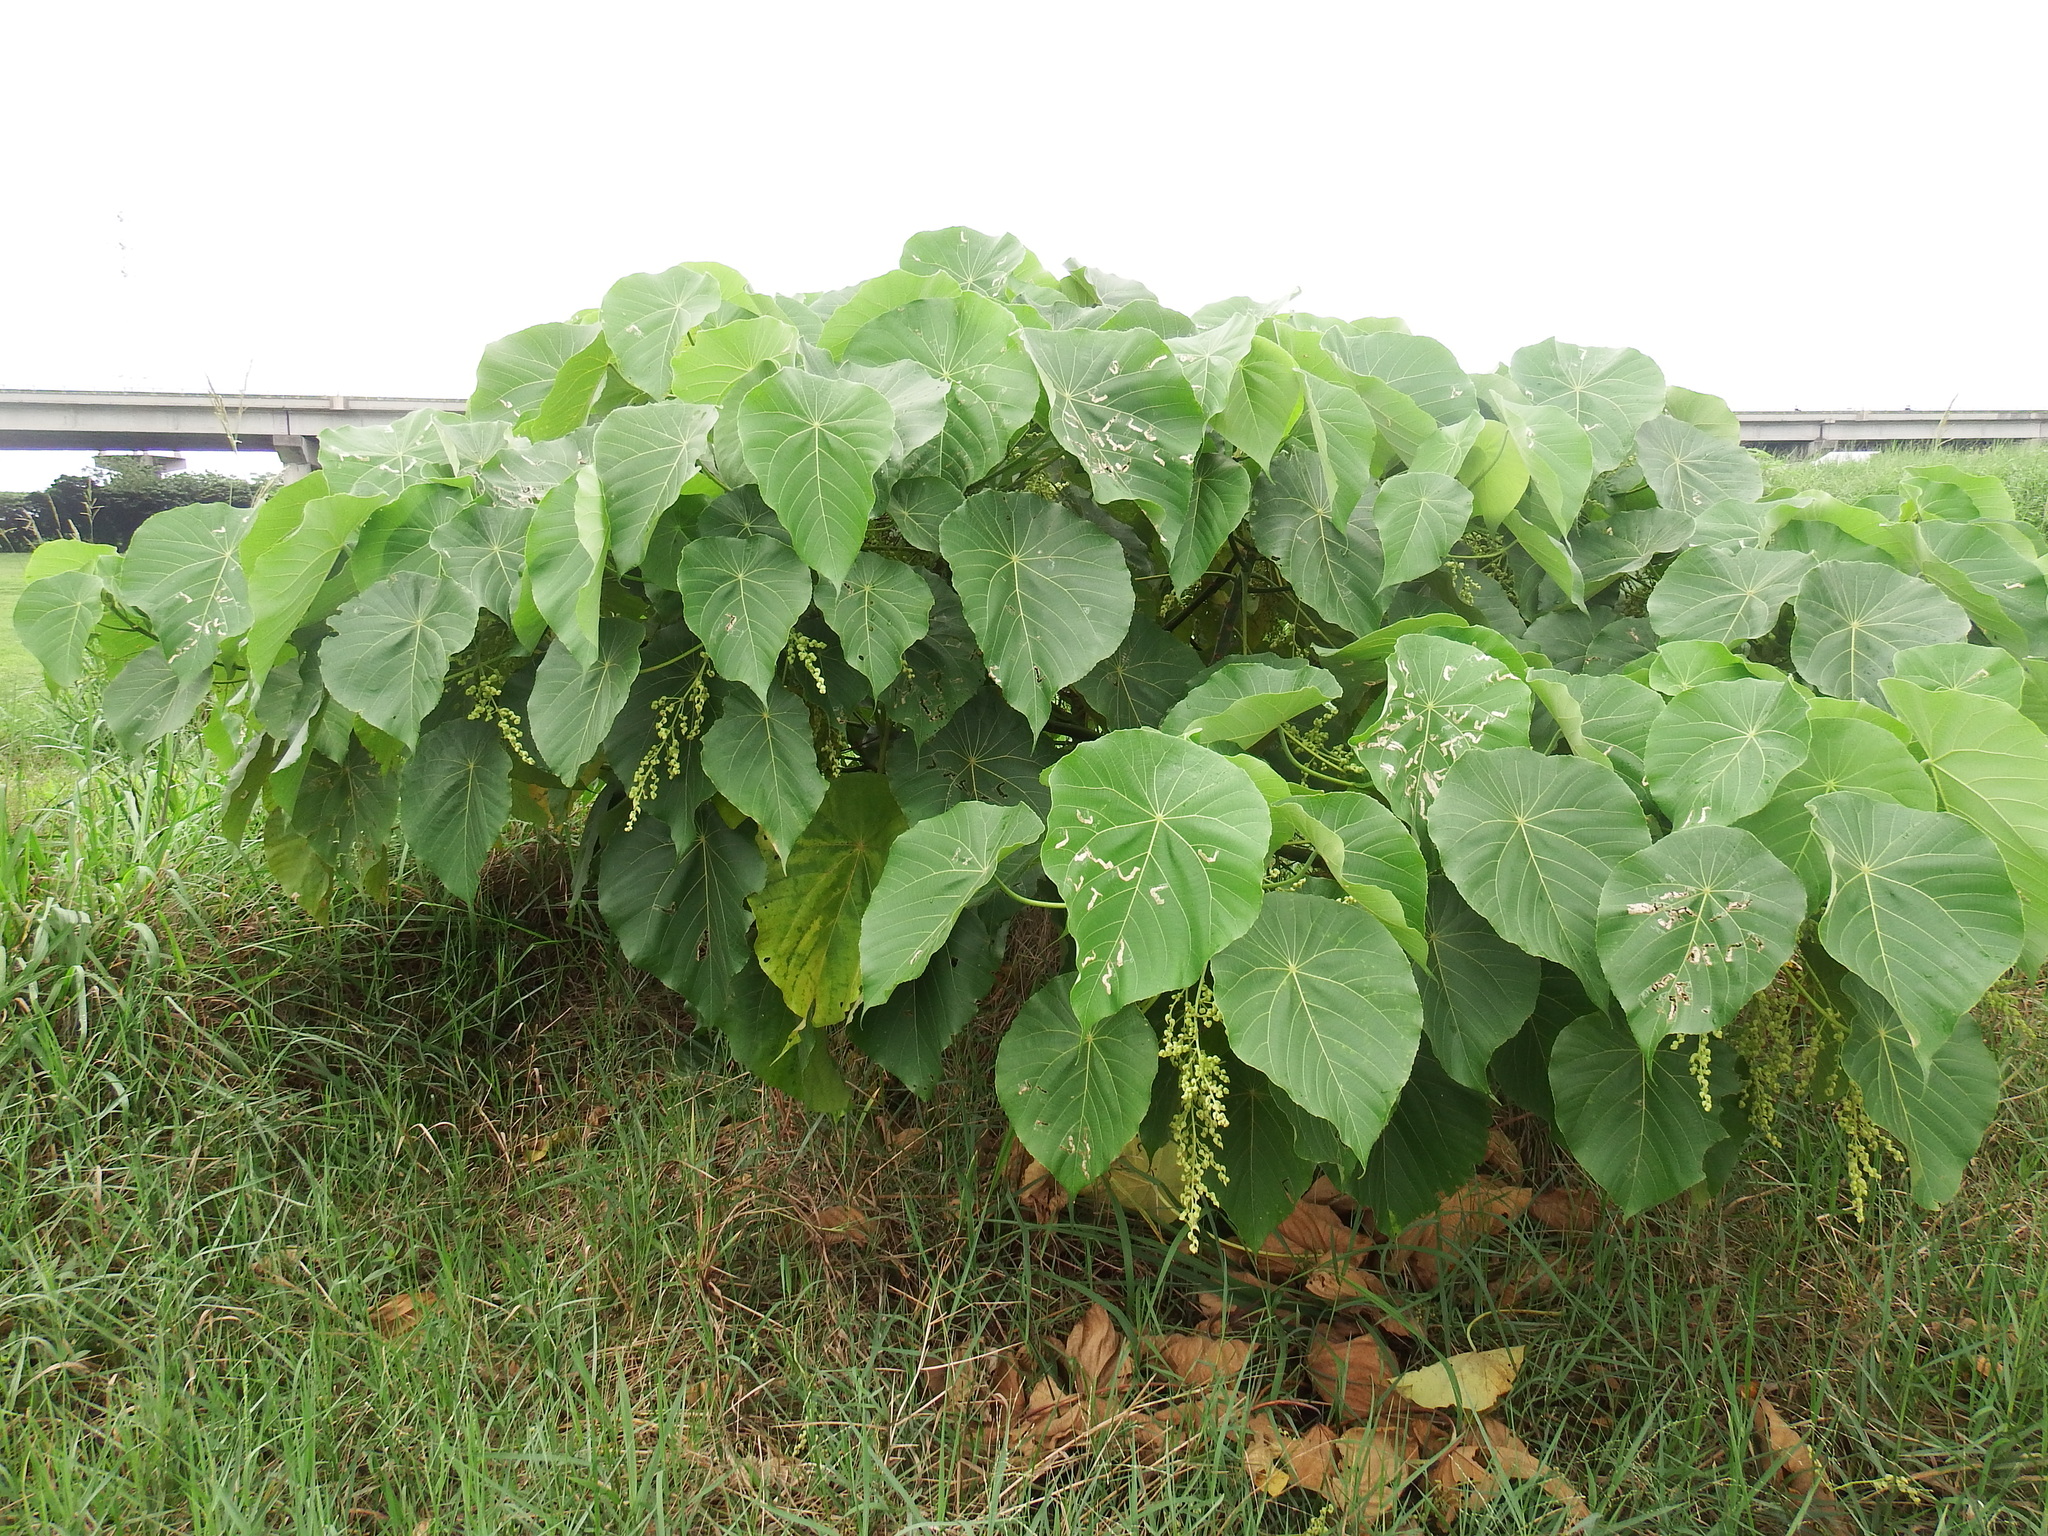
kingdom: Plantae
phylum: Tracheophyta
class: Magnoliopsida
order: Malpighiales
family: Euphorbiaceae
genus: Macaranga
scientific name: Macaranga tanarius
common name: Parasol leaf tree
